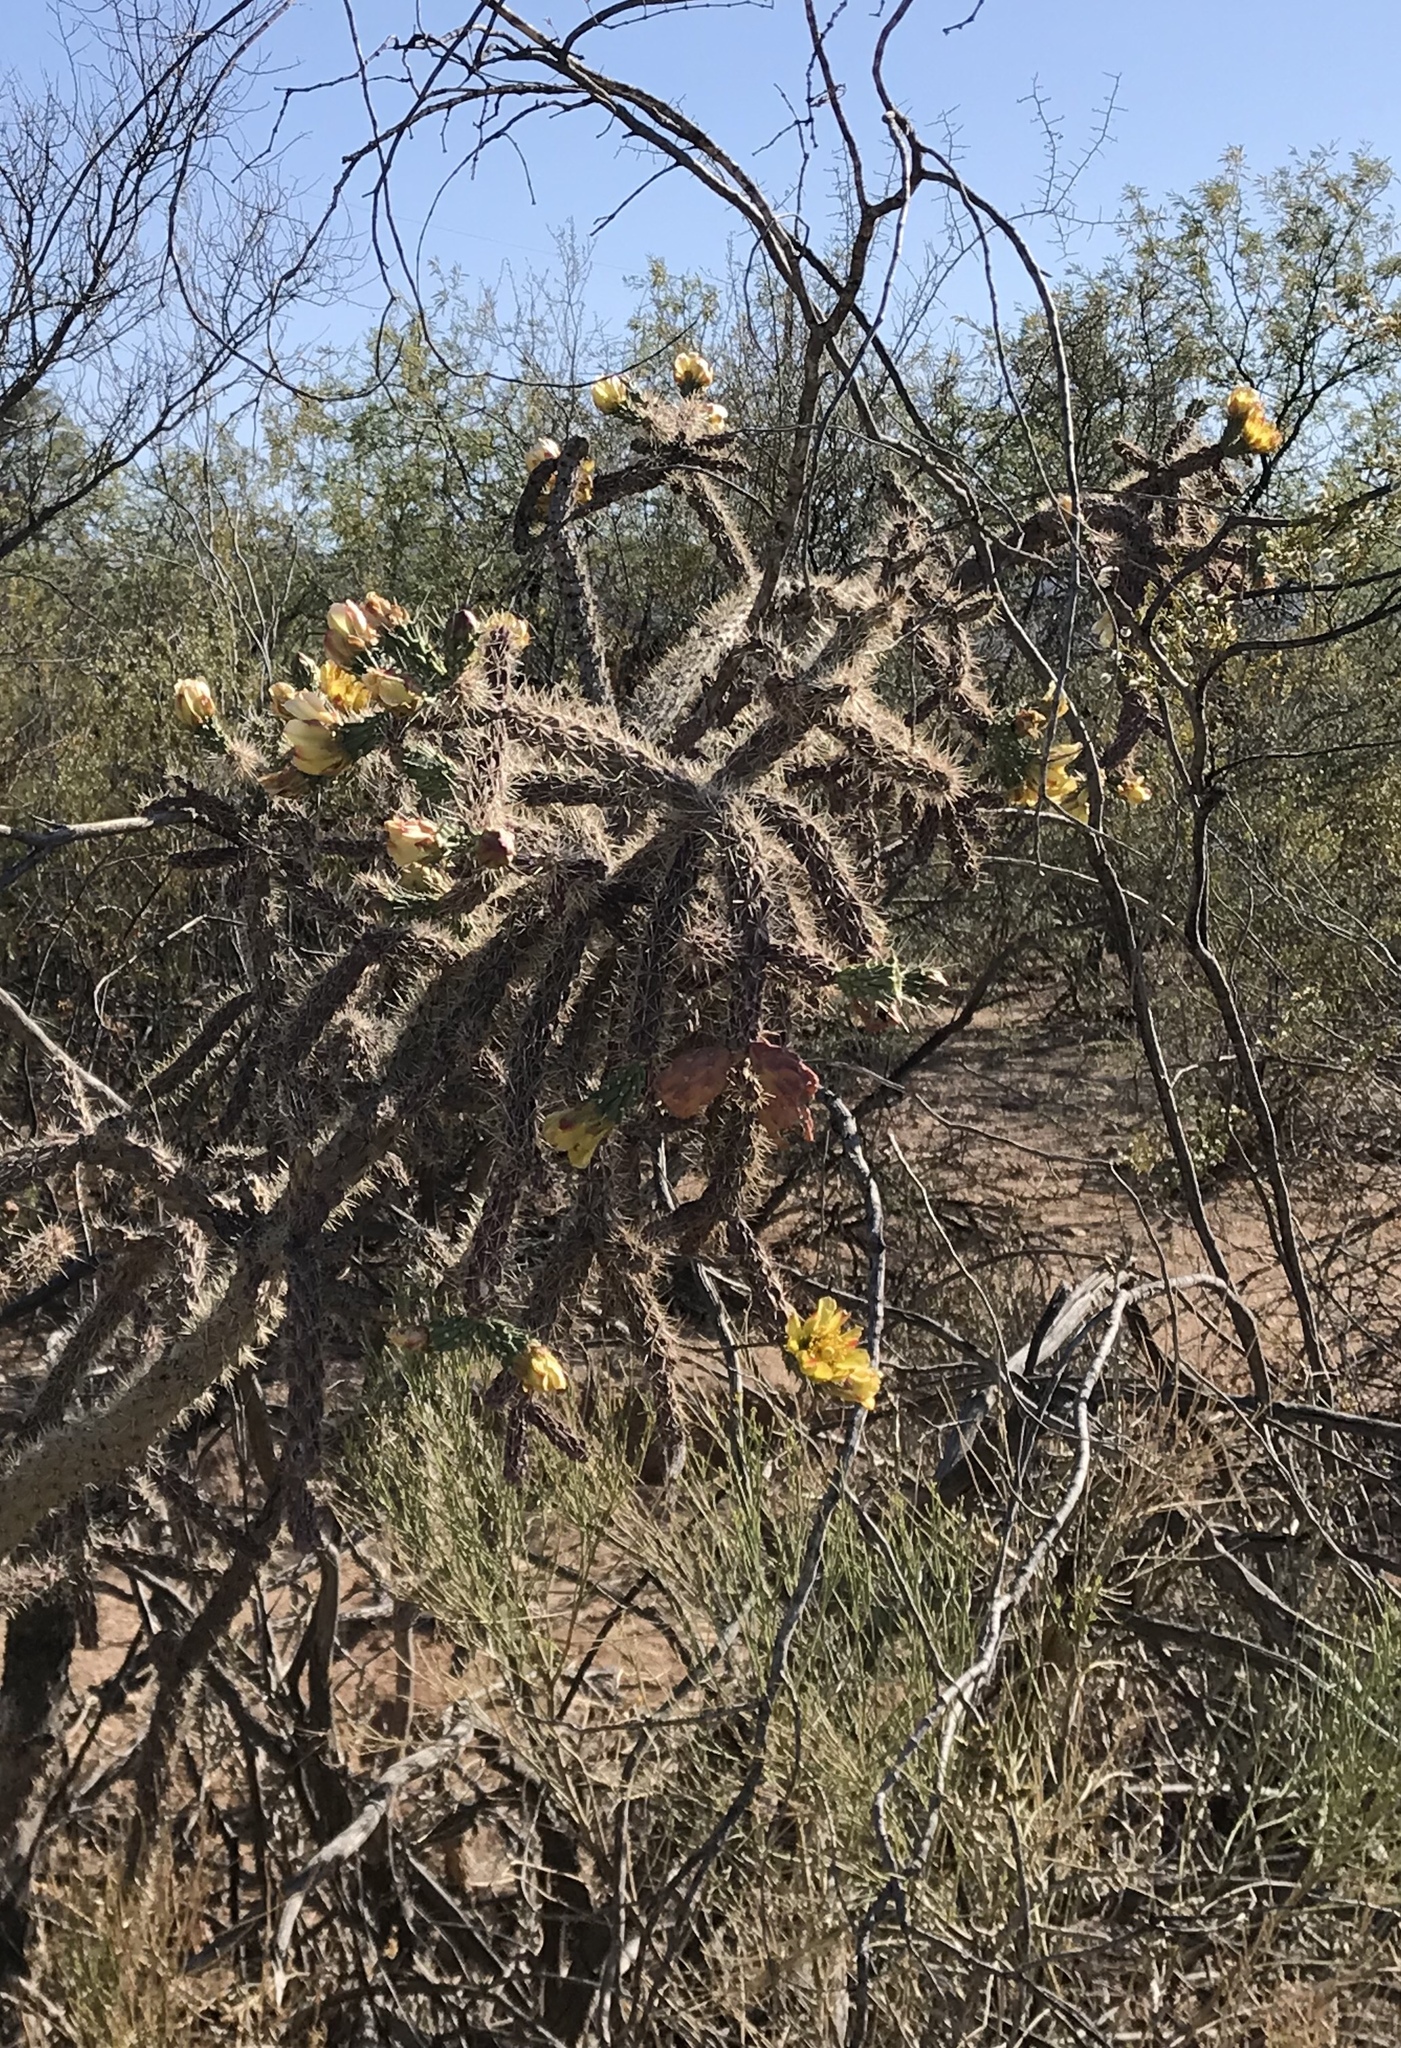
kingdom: Plantae
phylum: Tracheophyta
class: Magnoliopsida
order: Caryophyllales
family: Cactaceae
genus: Cylindropuntia
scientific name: Cylindropuntia thurberi
